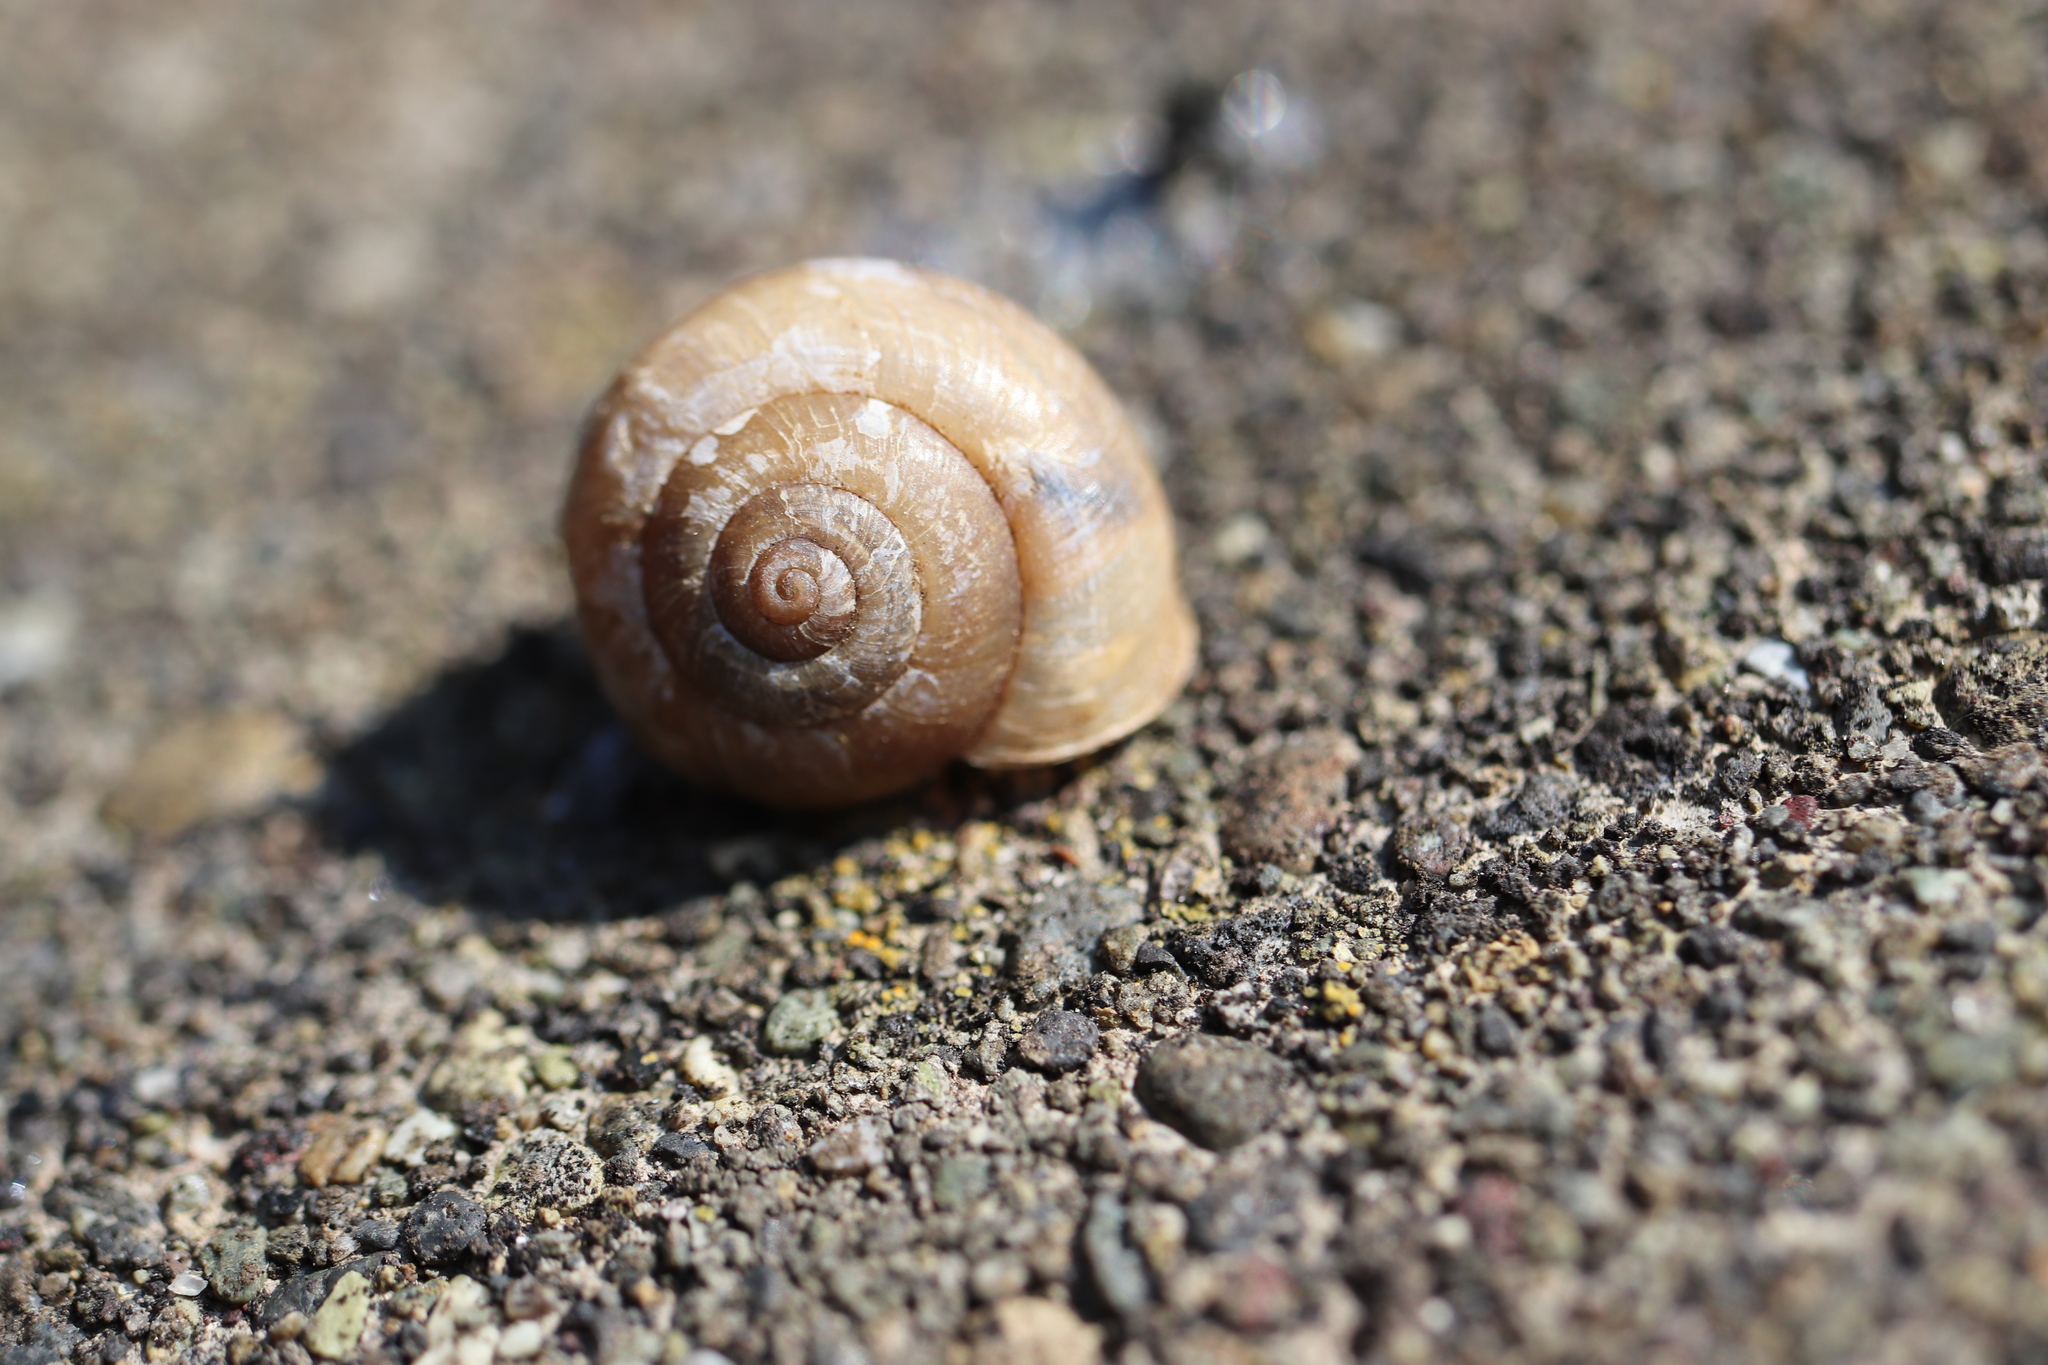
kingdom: Animalia
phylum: Mollusca
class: Gastropoda
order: Stylommatophora
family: Camaenidae
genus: Bradybaena
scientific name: Bradybaena similaris
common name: Asian trampsnail
